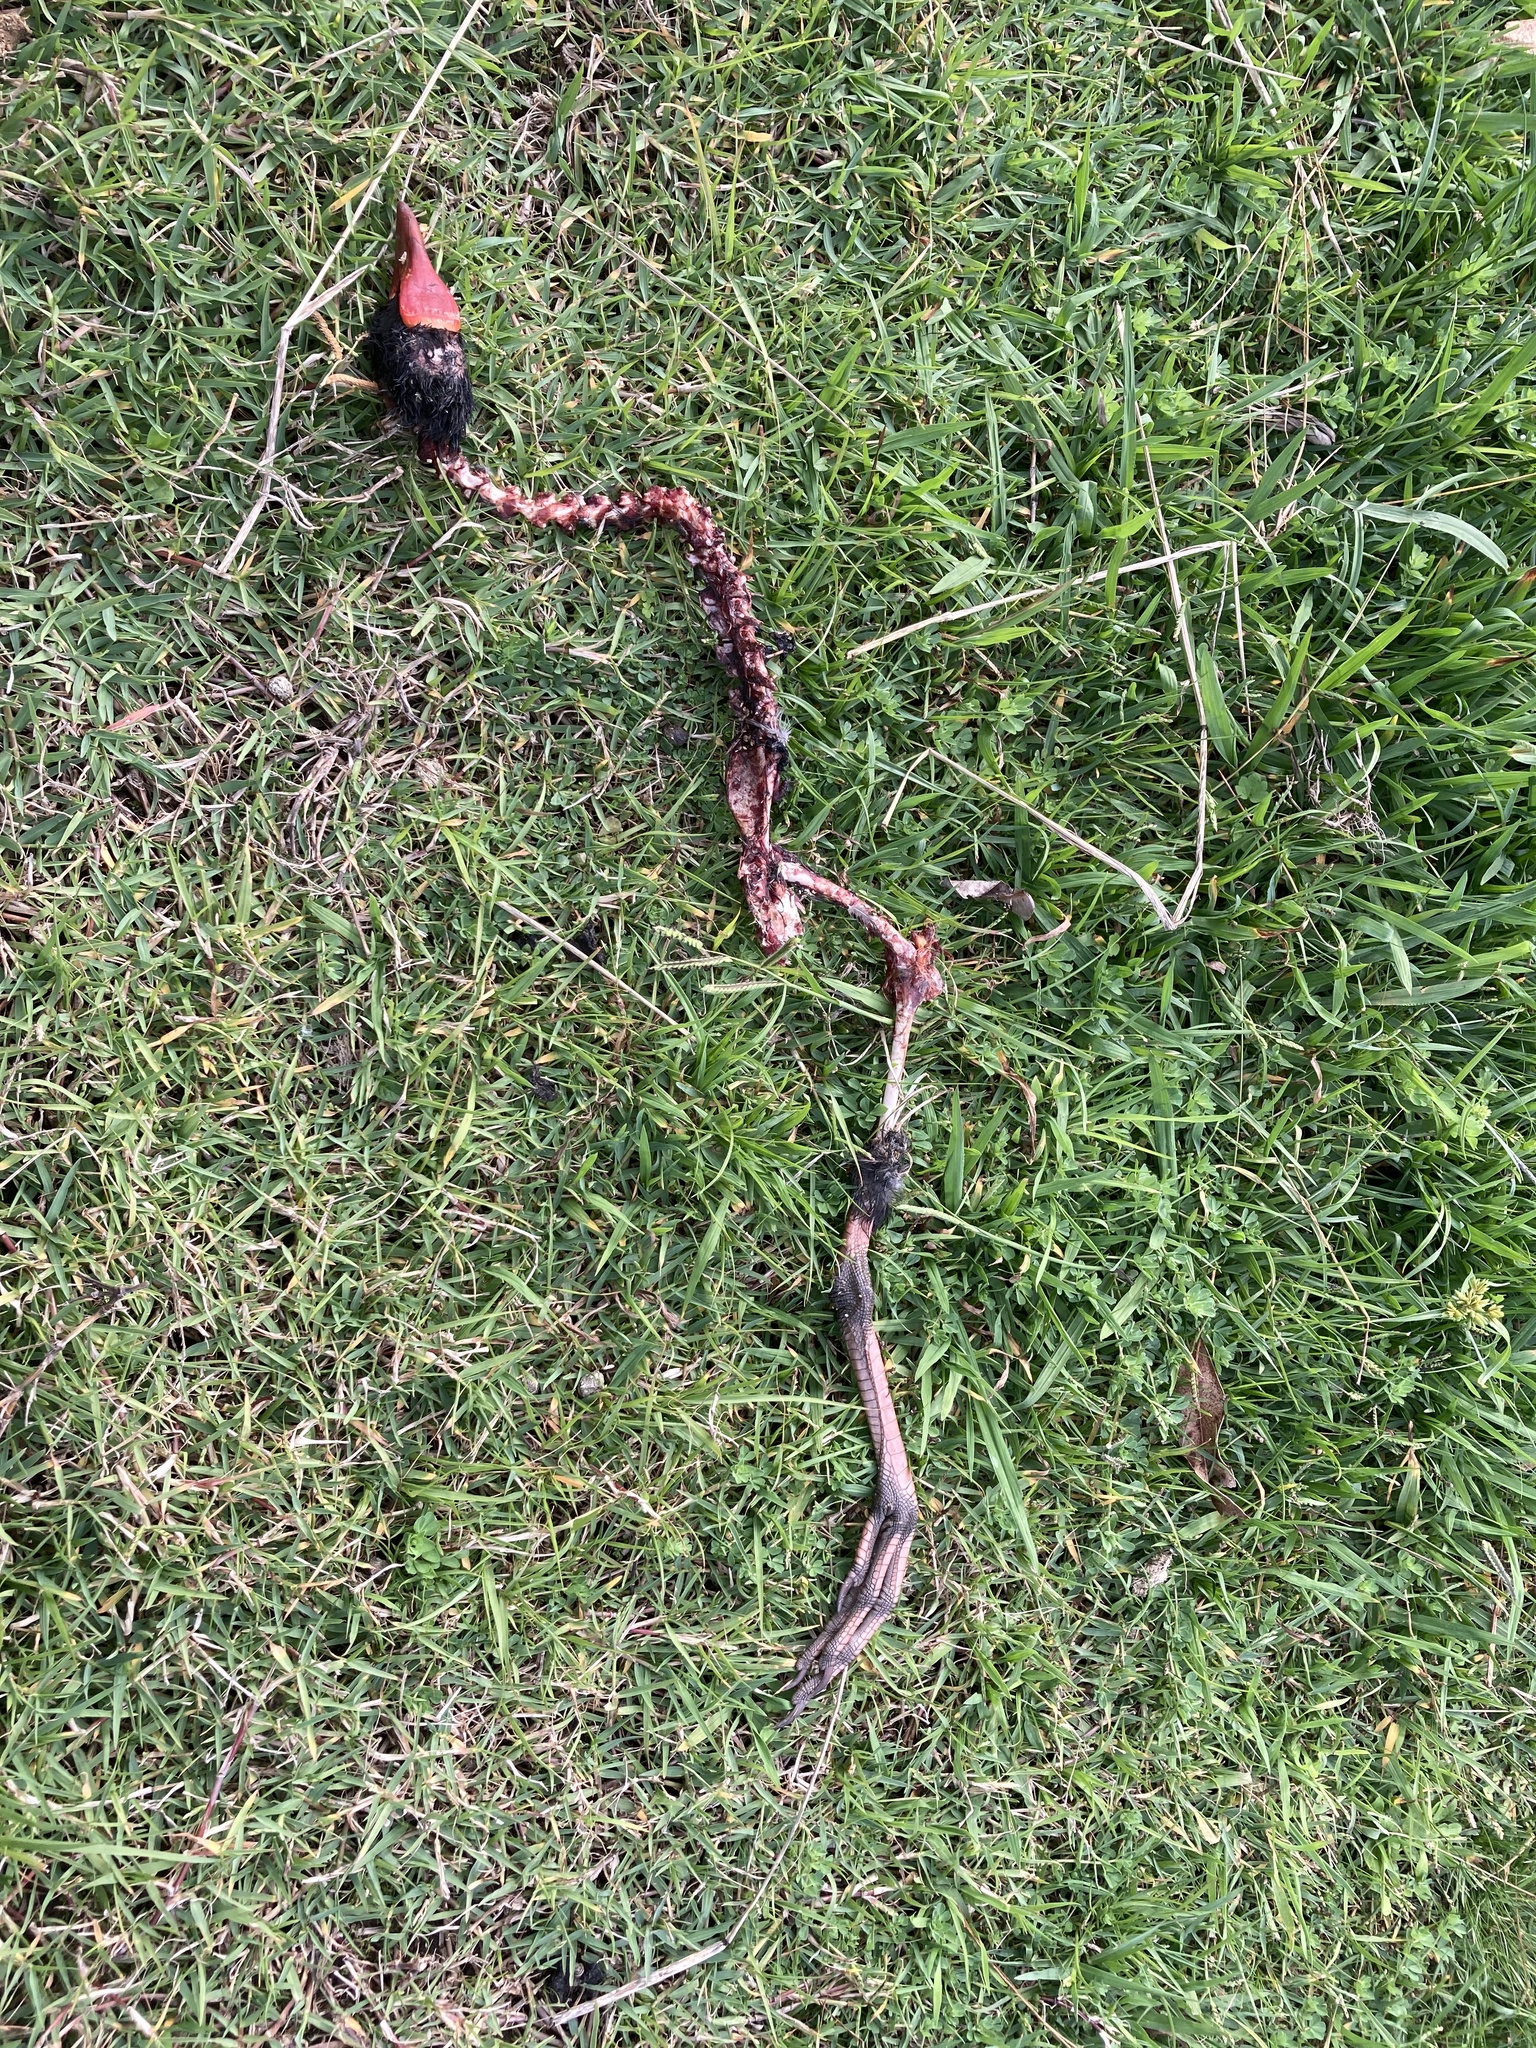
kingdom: Animalia
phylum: Chordata
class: Aves
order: Gruiformes
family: Rallidae
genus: Porphyrio
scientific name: Porphyrio melanotus
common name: Australasian swamphen
